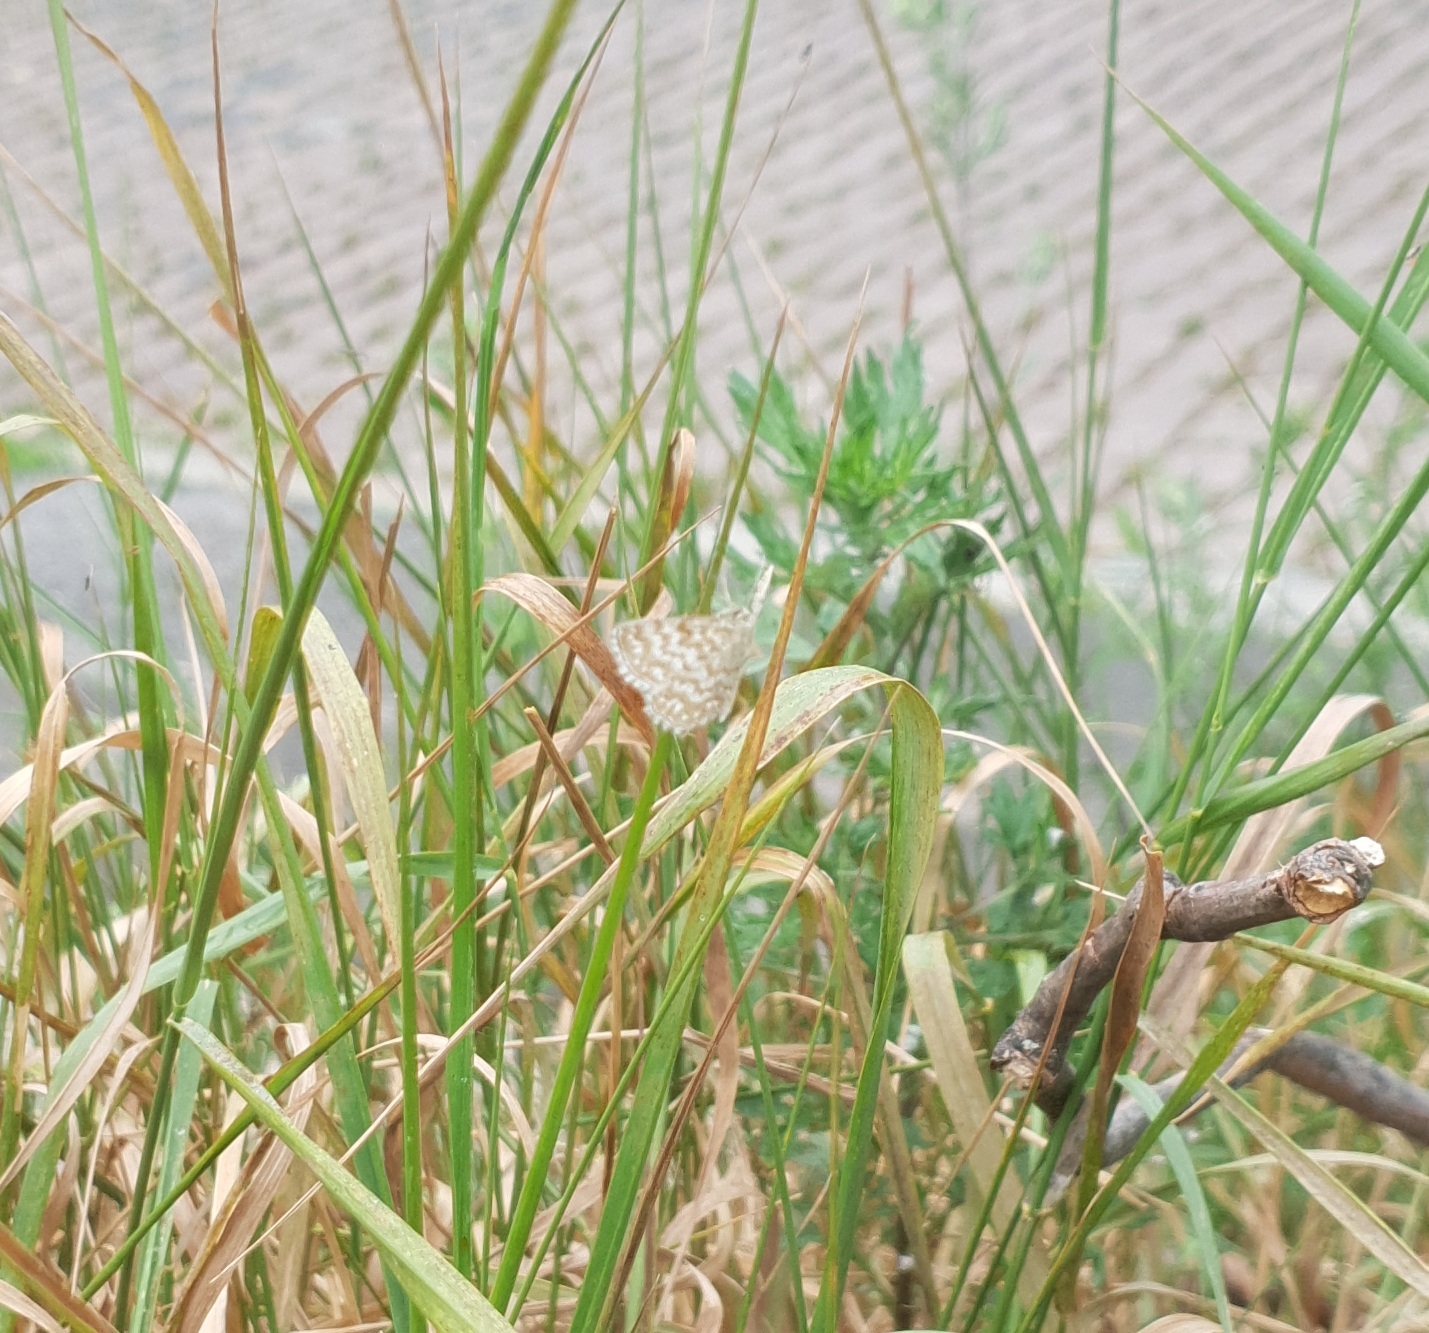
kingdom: Animalia
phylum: Arthropoda
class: Insecta
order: Lepidoptera
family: Geometridae
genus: Scopula
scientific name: Scopula immorata
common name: Lewes wave
